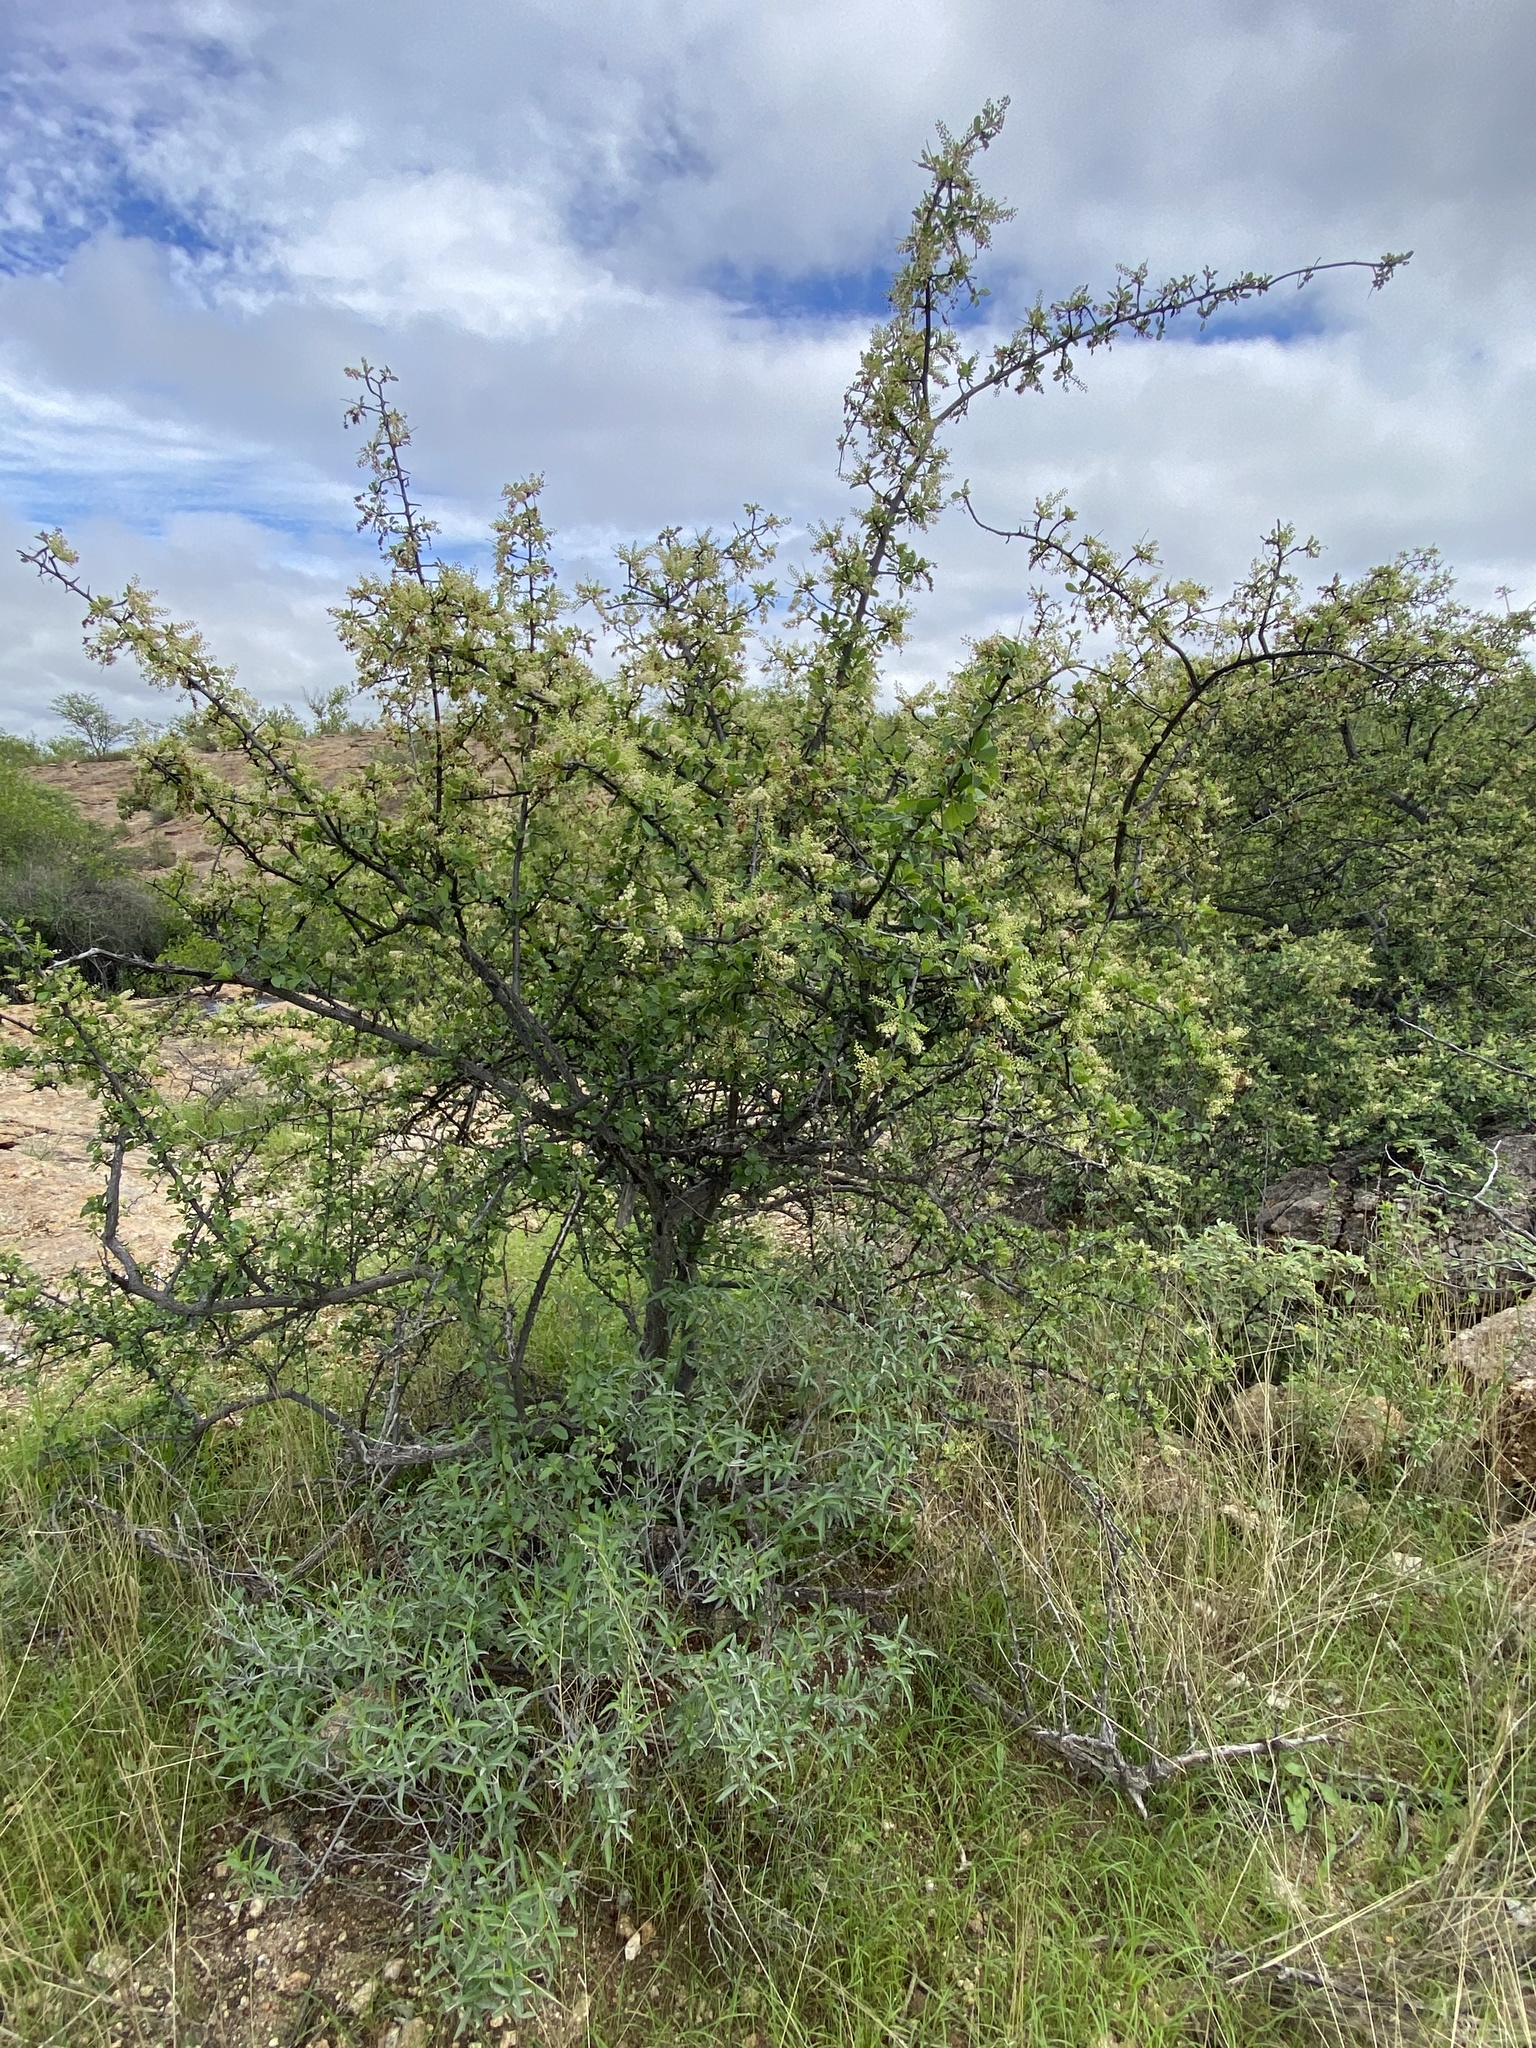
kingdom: Plantae
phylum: Tracheophyta
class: Magnoliopsida
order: Myrtales
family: Combretaceae
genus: Terminalia
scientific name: Terminalia prunioides
